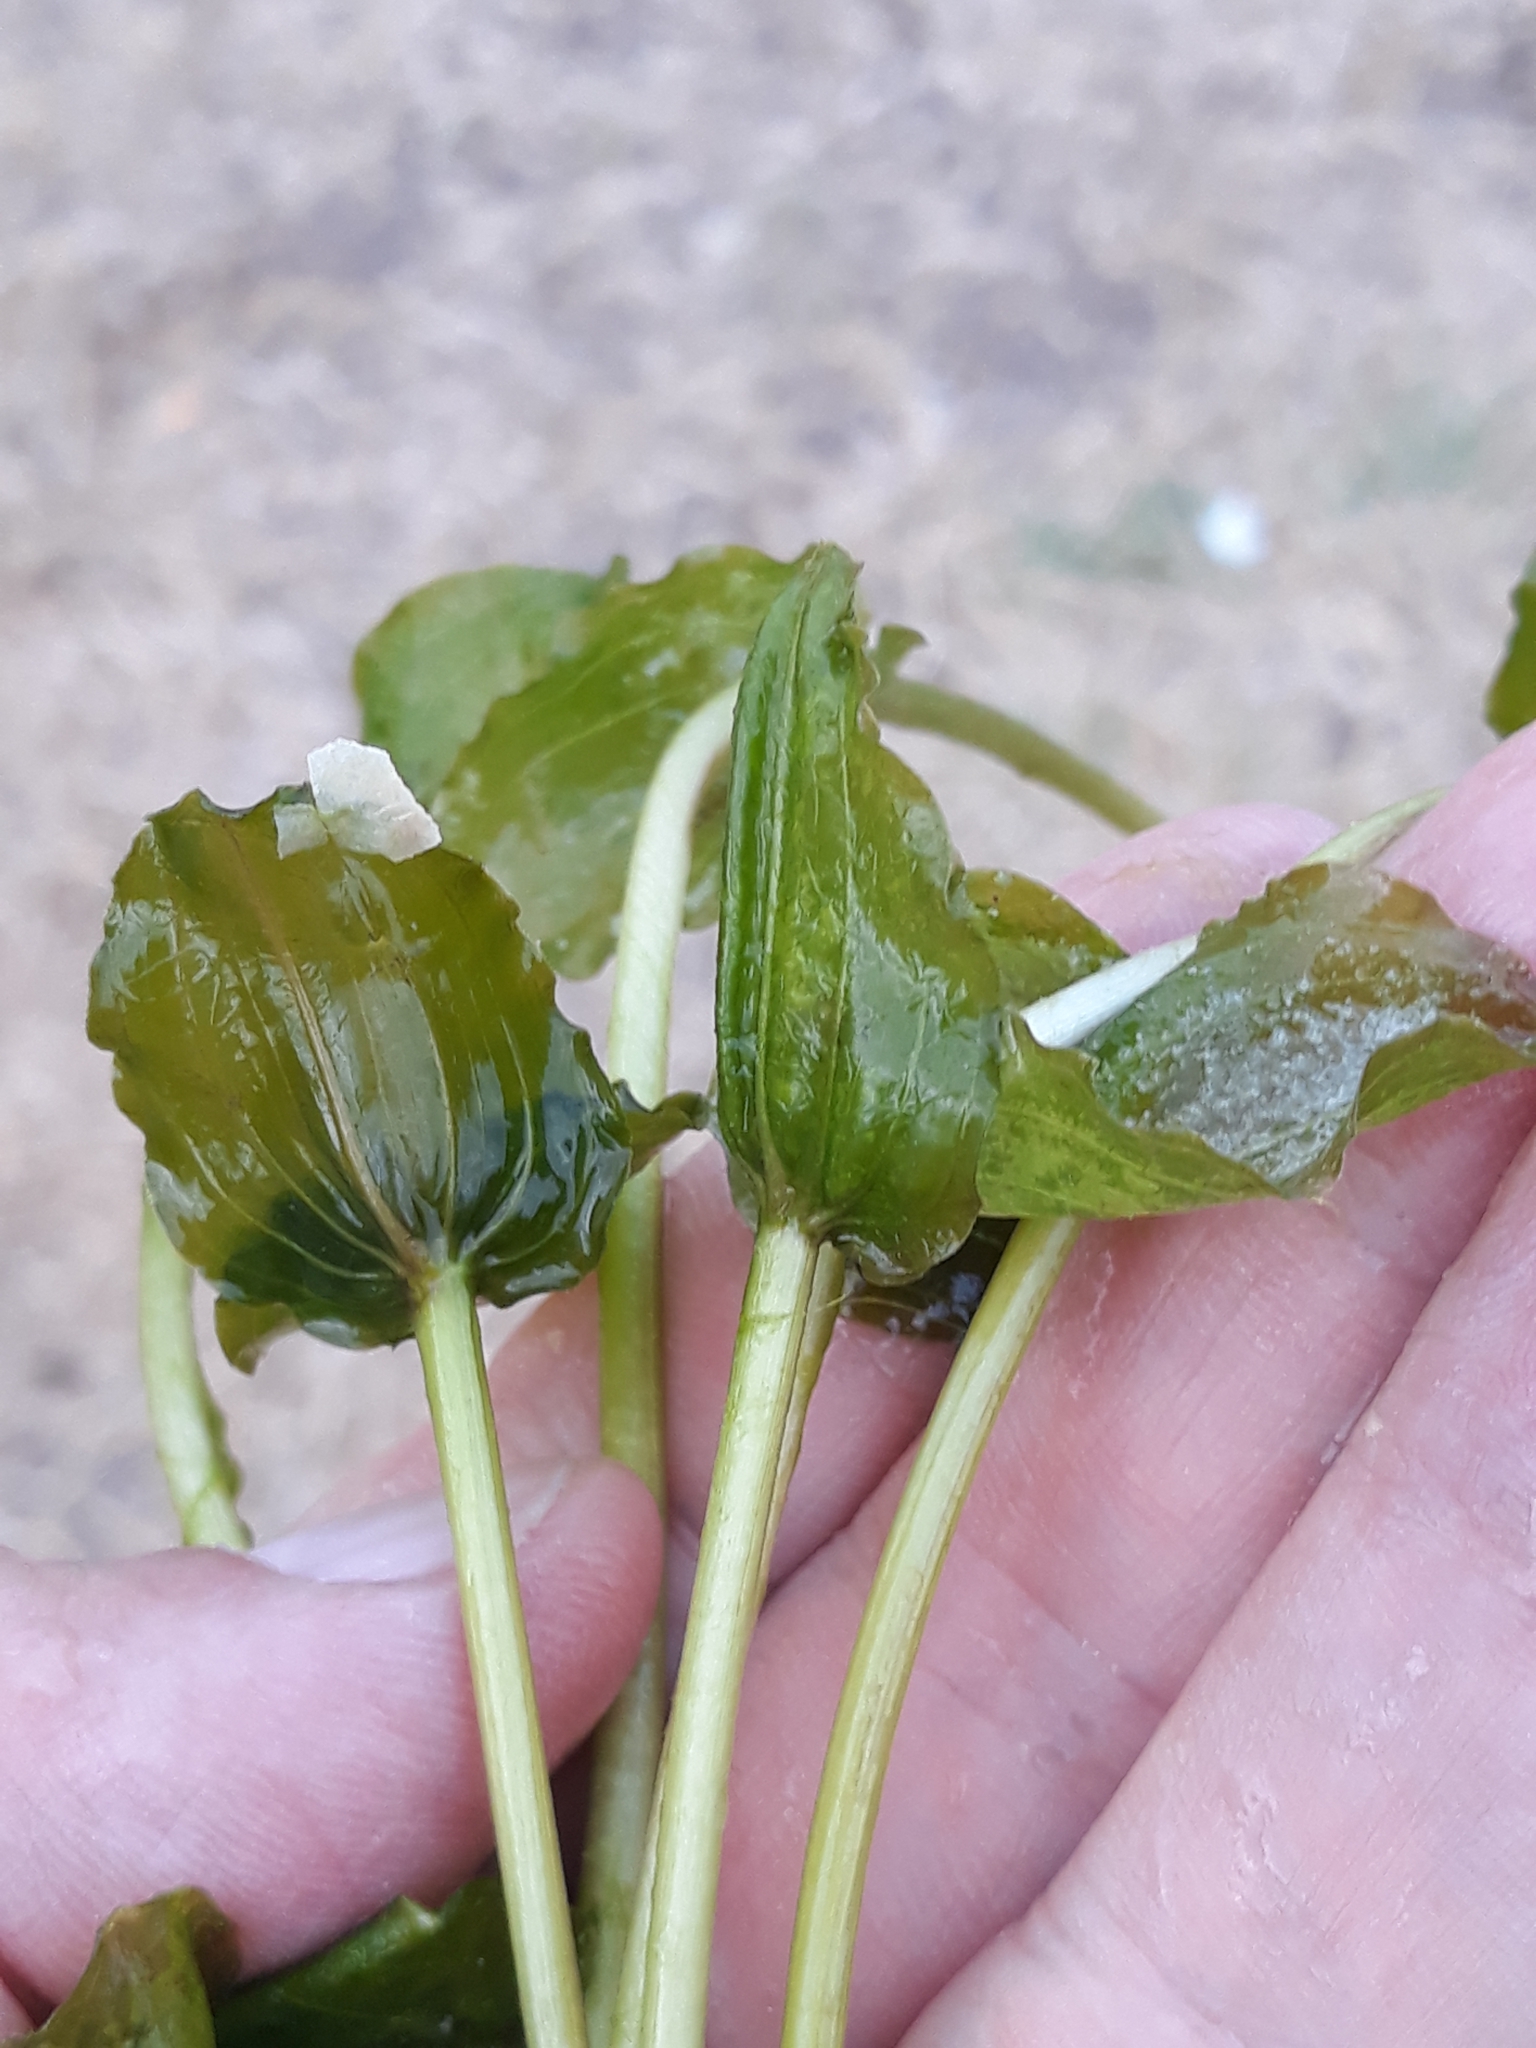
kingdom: Plantae
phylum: Tracheophyta
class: Liliopsida
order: Alismatales
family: Potamogetonaceae
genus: Potamogeton
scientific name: Potamogeton perfoliatus
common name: Perfoliate pondweed
